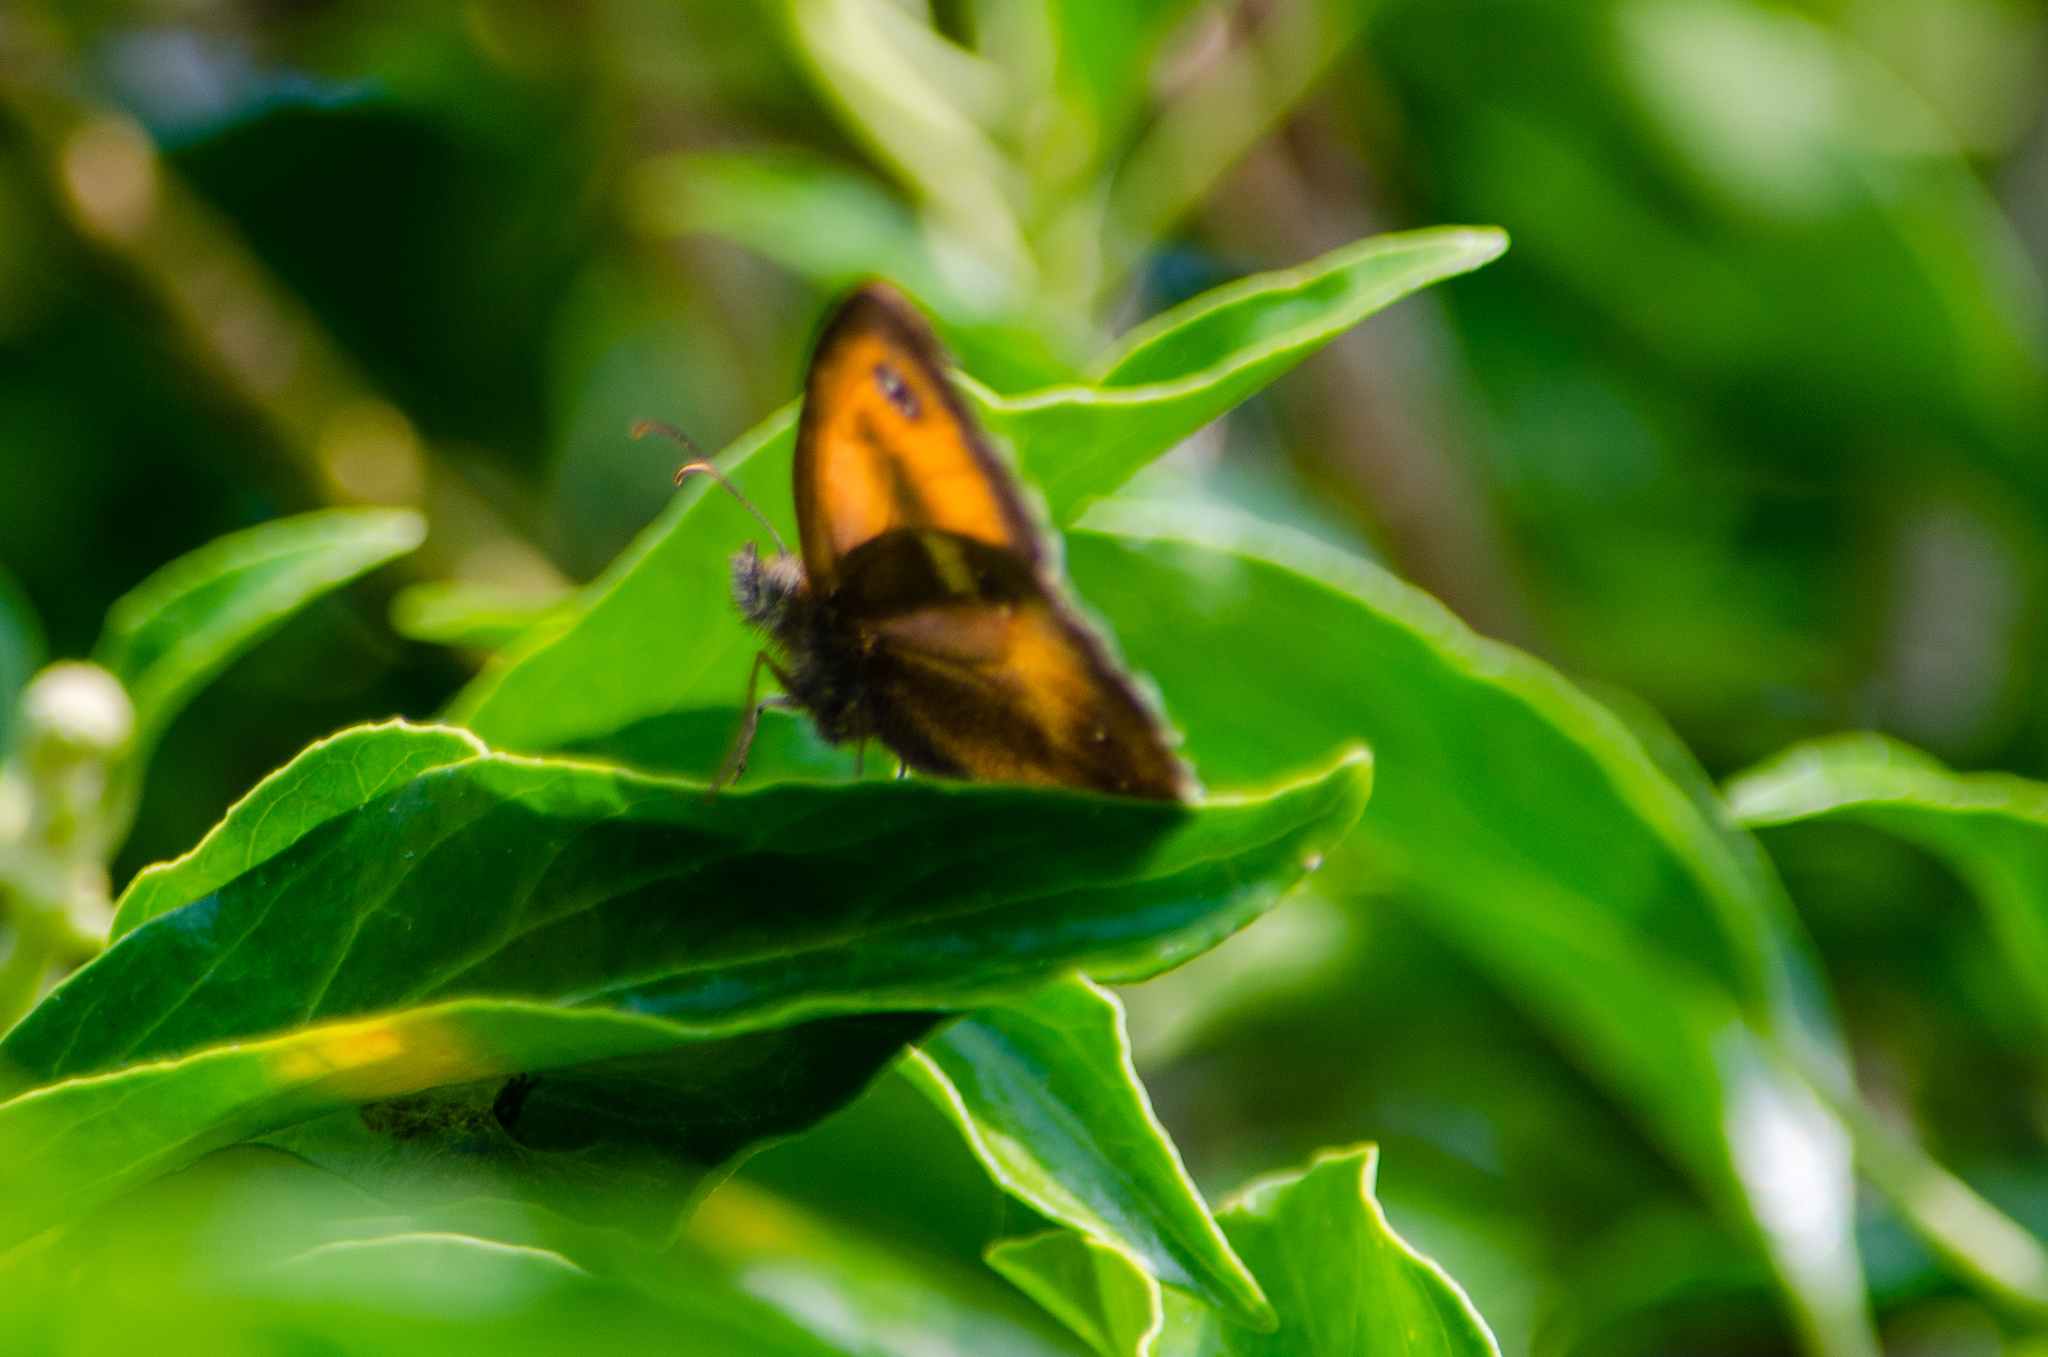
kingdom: Animalia
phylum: Arthropoda
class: Insecta
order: Lepidoptera
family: Nymphalidae
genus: Pyronia
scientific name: Pyronia tithonus
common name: Gatekeeper
